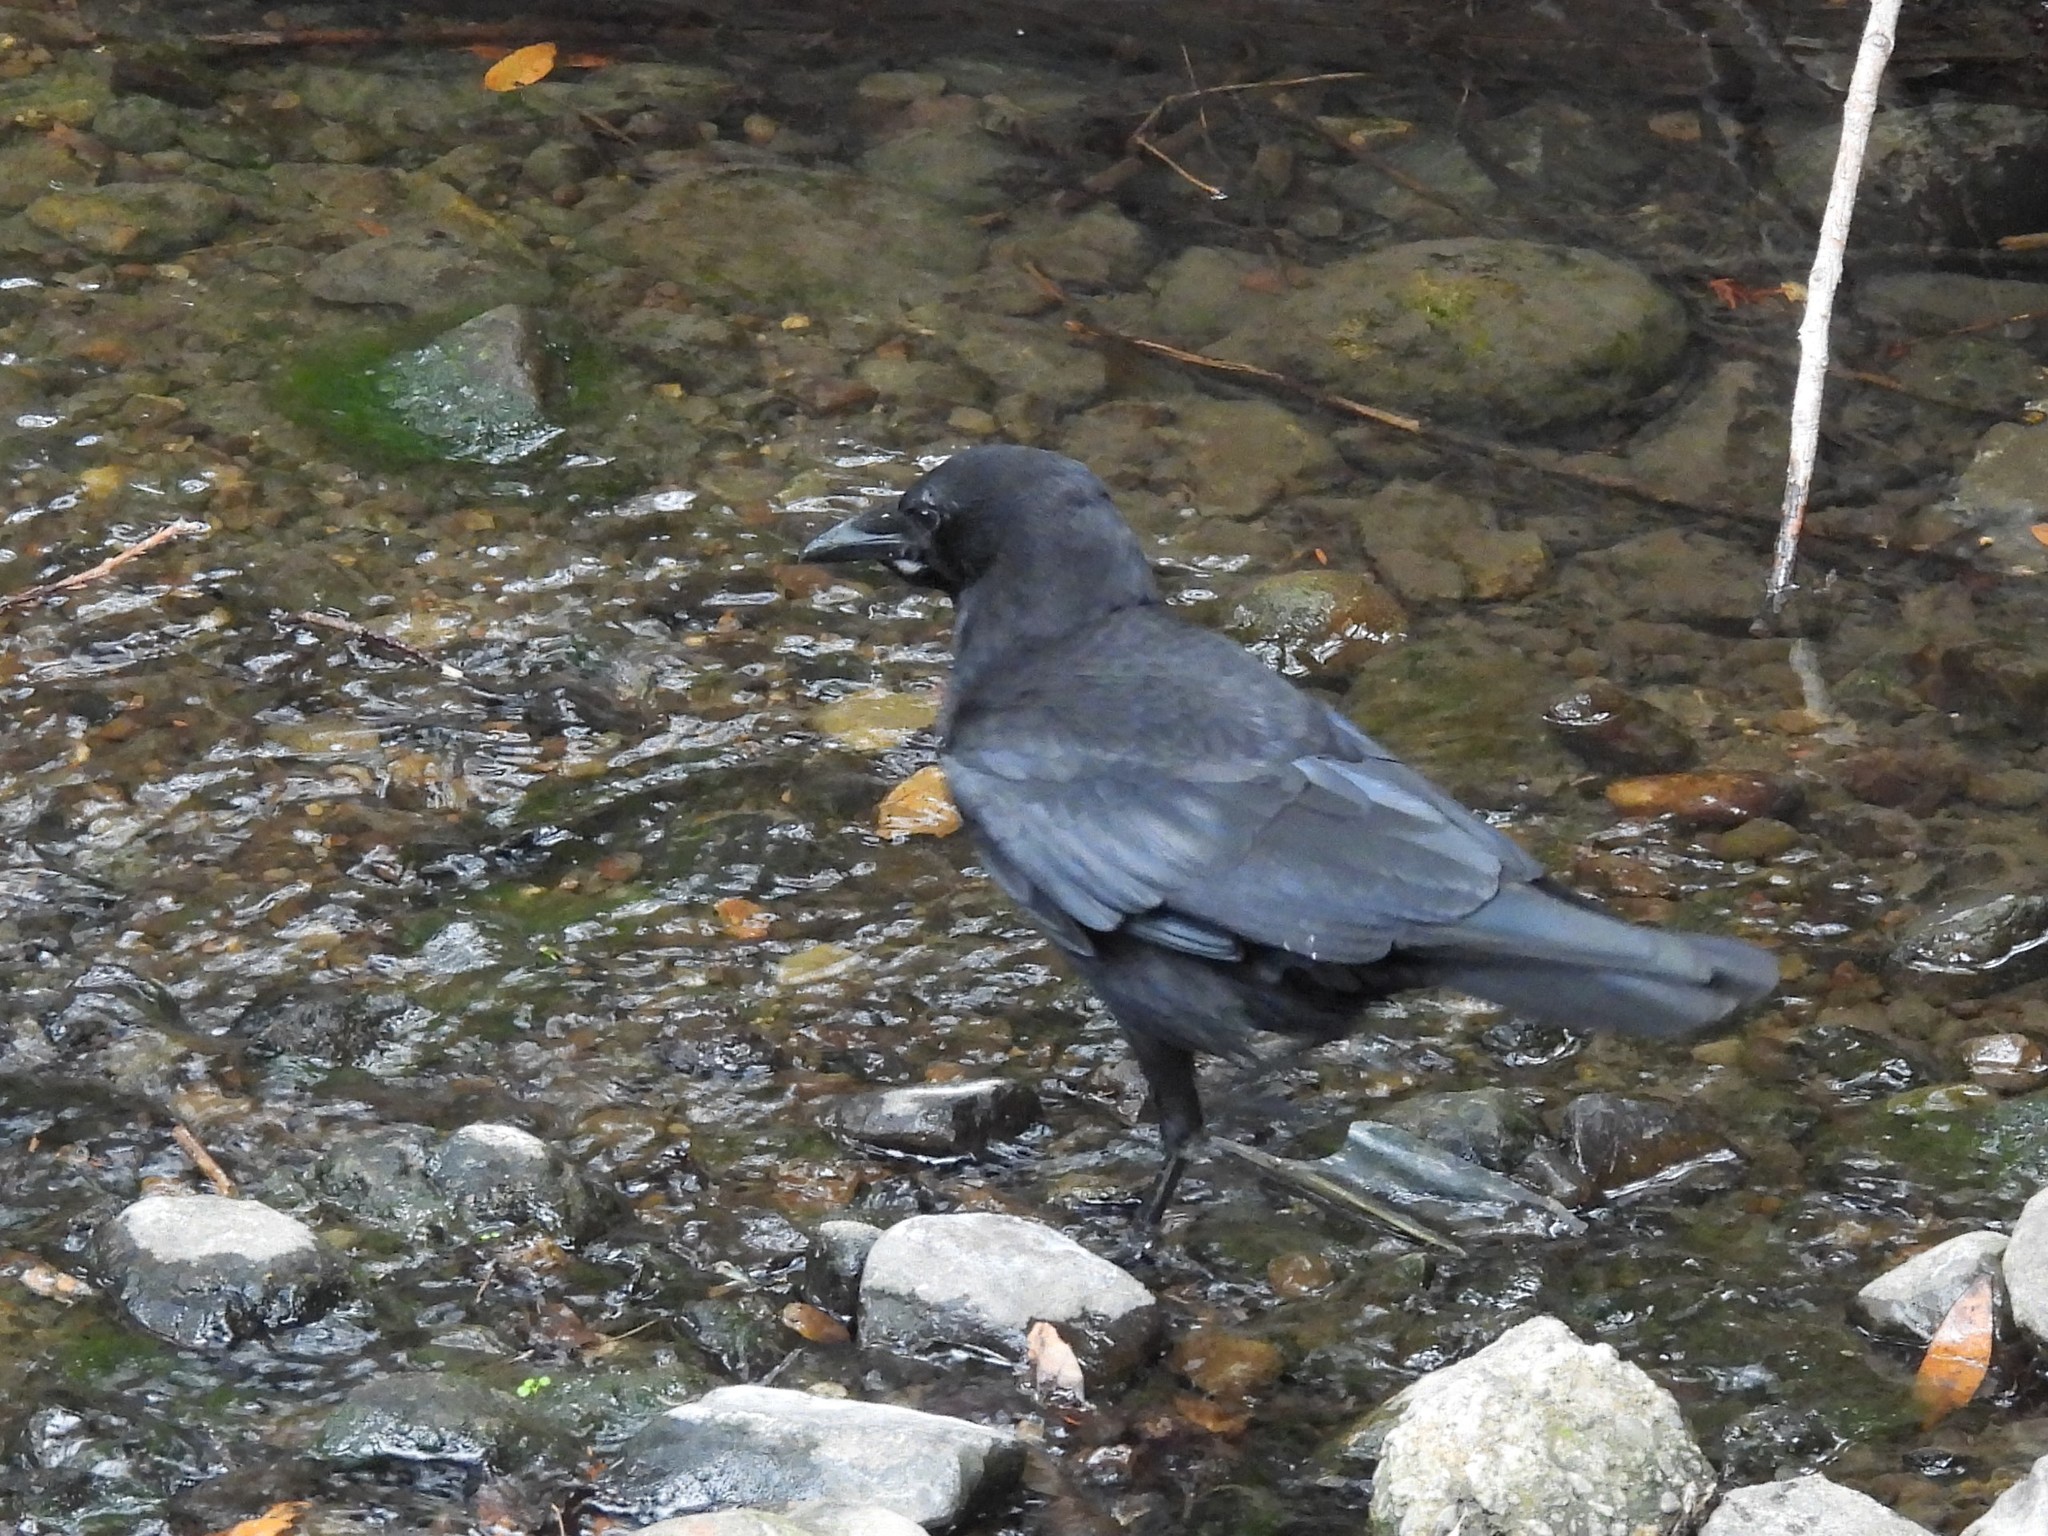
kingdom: Animalia
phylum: Chordata
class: Aves
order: Passeriformes
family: Corvidae
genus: Corvus
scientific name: Corvus brachyrhynchos
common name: American crow
